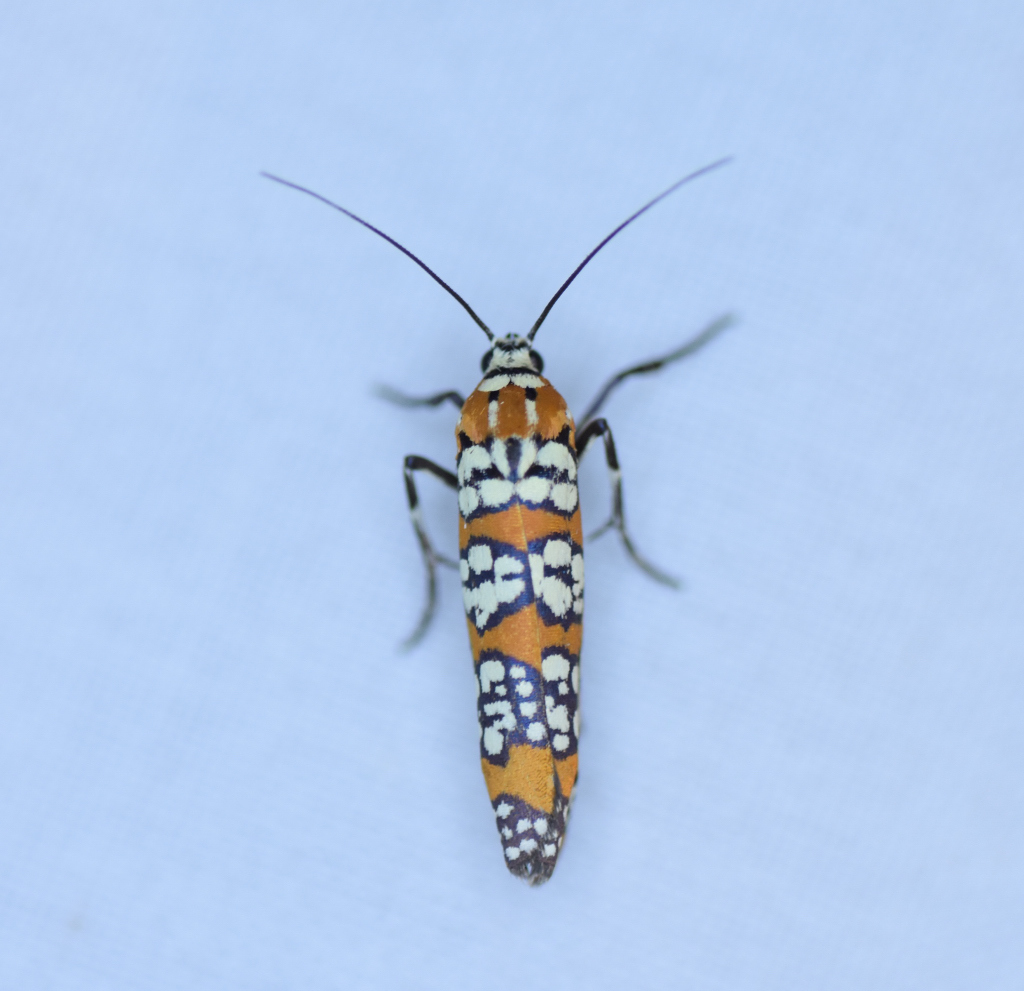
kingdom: Animalia
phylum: Arthropoda
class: Insecta
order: Lepidoptera
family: Attevidae
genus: Atteva
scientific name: Atteva punctella
